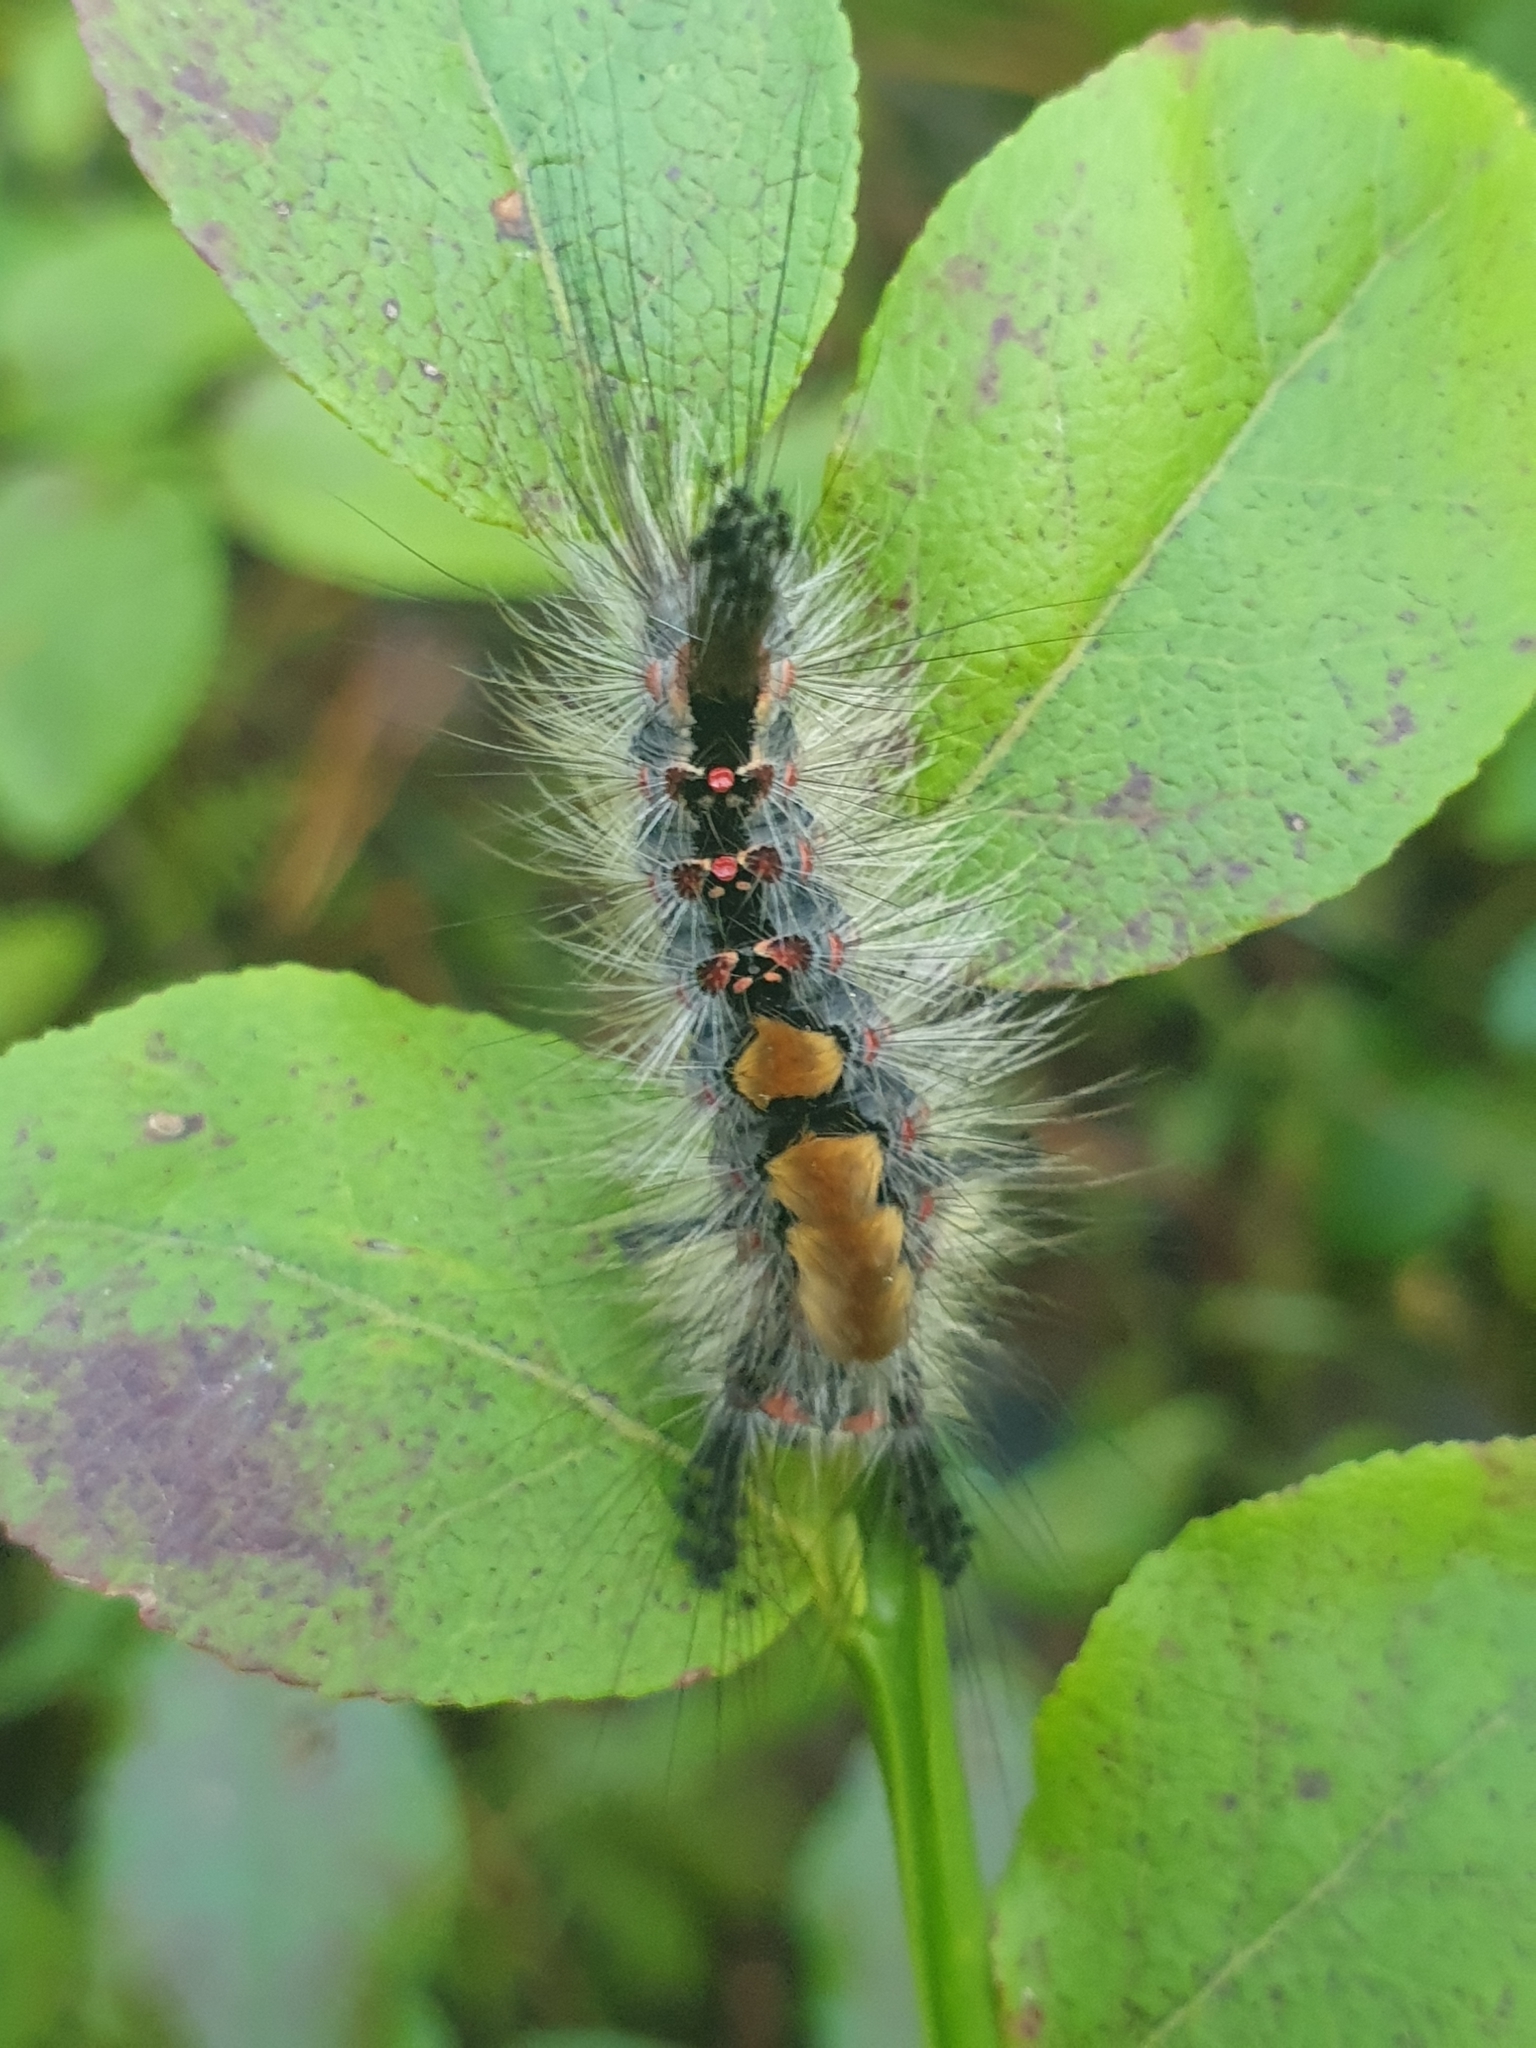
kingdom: Animalia
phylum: Arthropoda
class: Insecta
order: Lepidoptera
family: Erebidae
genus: Orgyia
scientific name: Orgyia antiqua
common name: Vapourer
